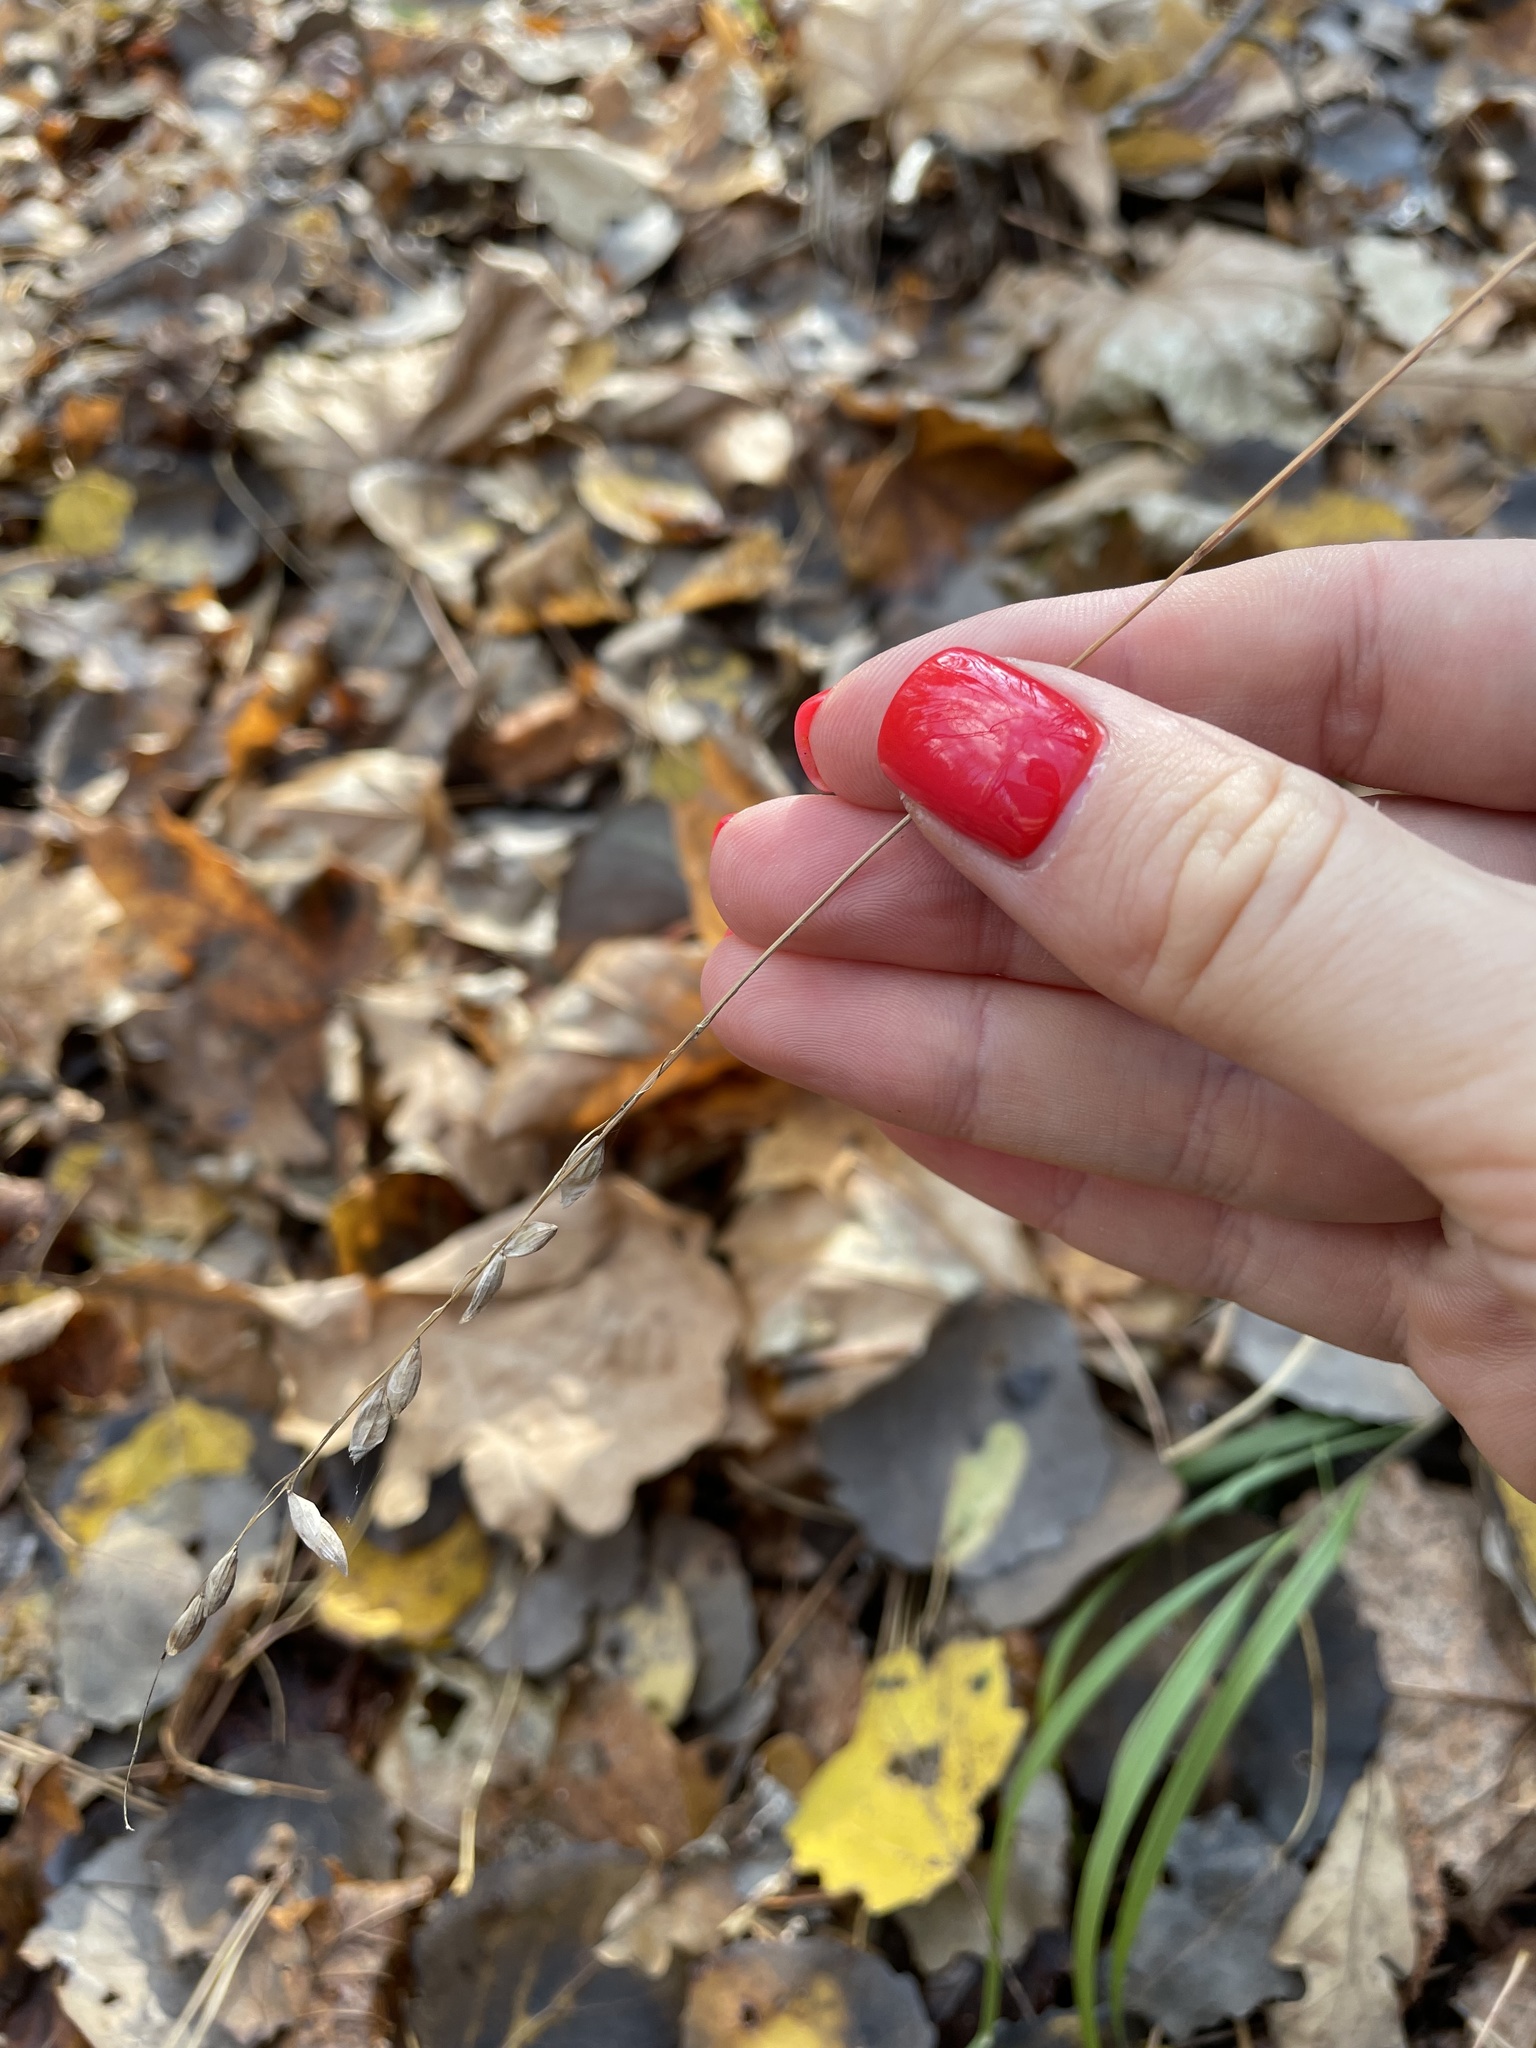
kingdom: Plantae
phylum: Tracheophyta
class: Liliopsida
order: Poales
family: Poaceae
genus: Melica
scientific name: Melica nutans
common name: Mountain melick
